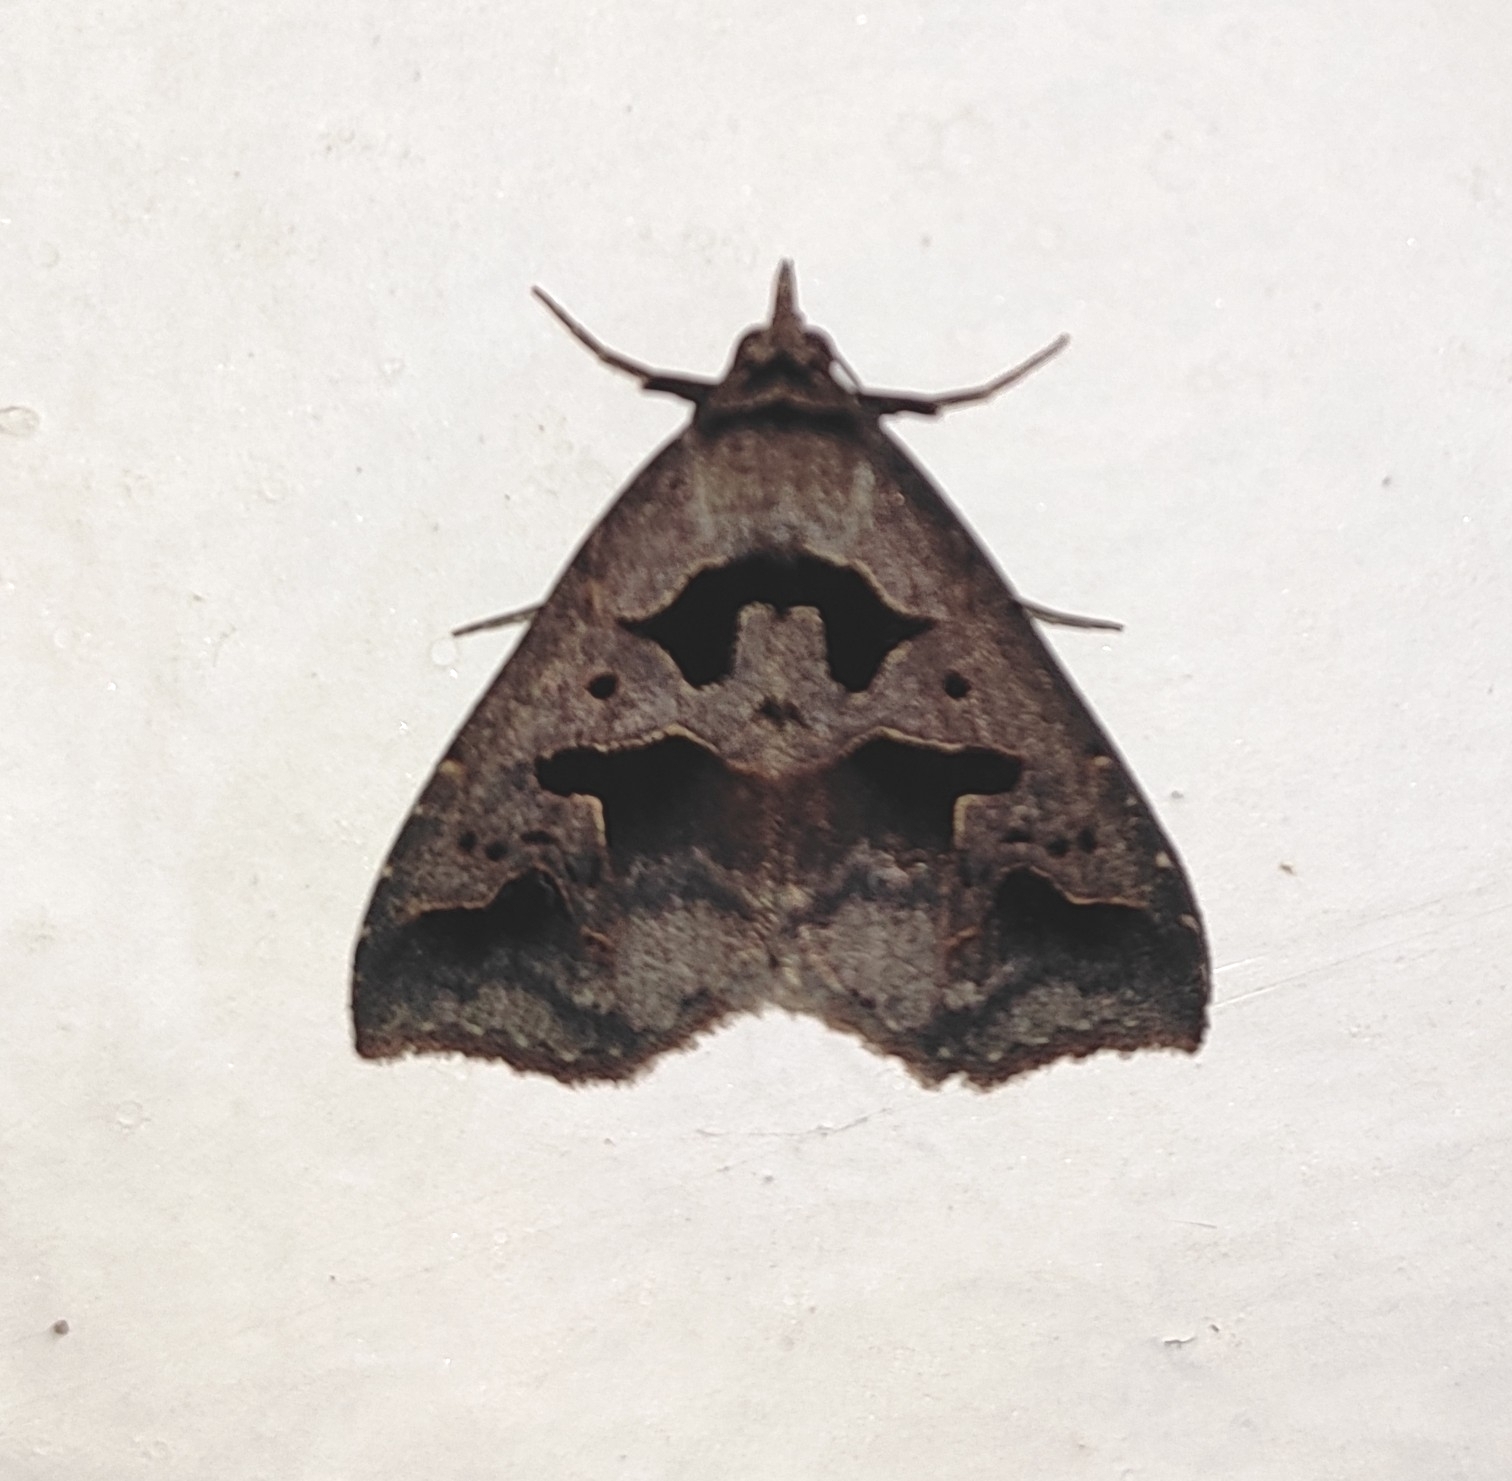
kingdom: Animalia
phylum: Arthropoda
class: Insecta
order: Lepidoptera
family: Erebidae
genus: Tephriopis
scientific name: Tephriopis divulsa
